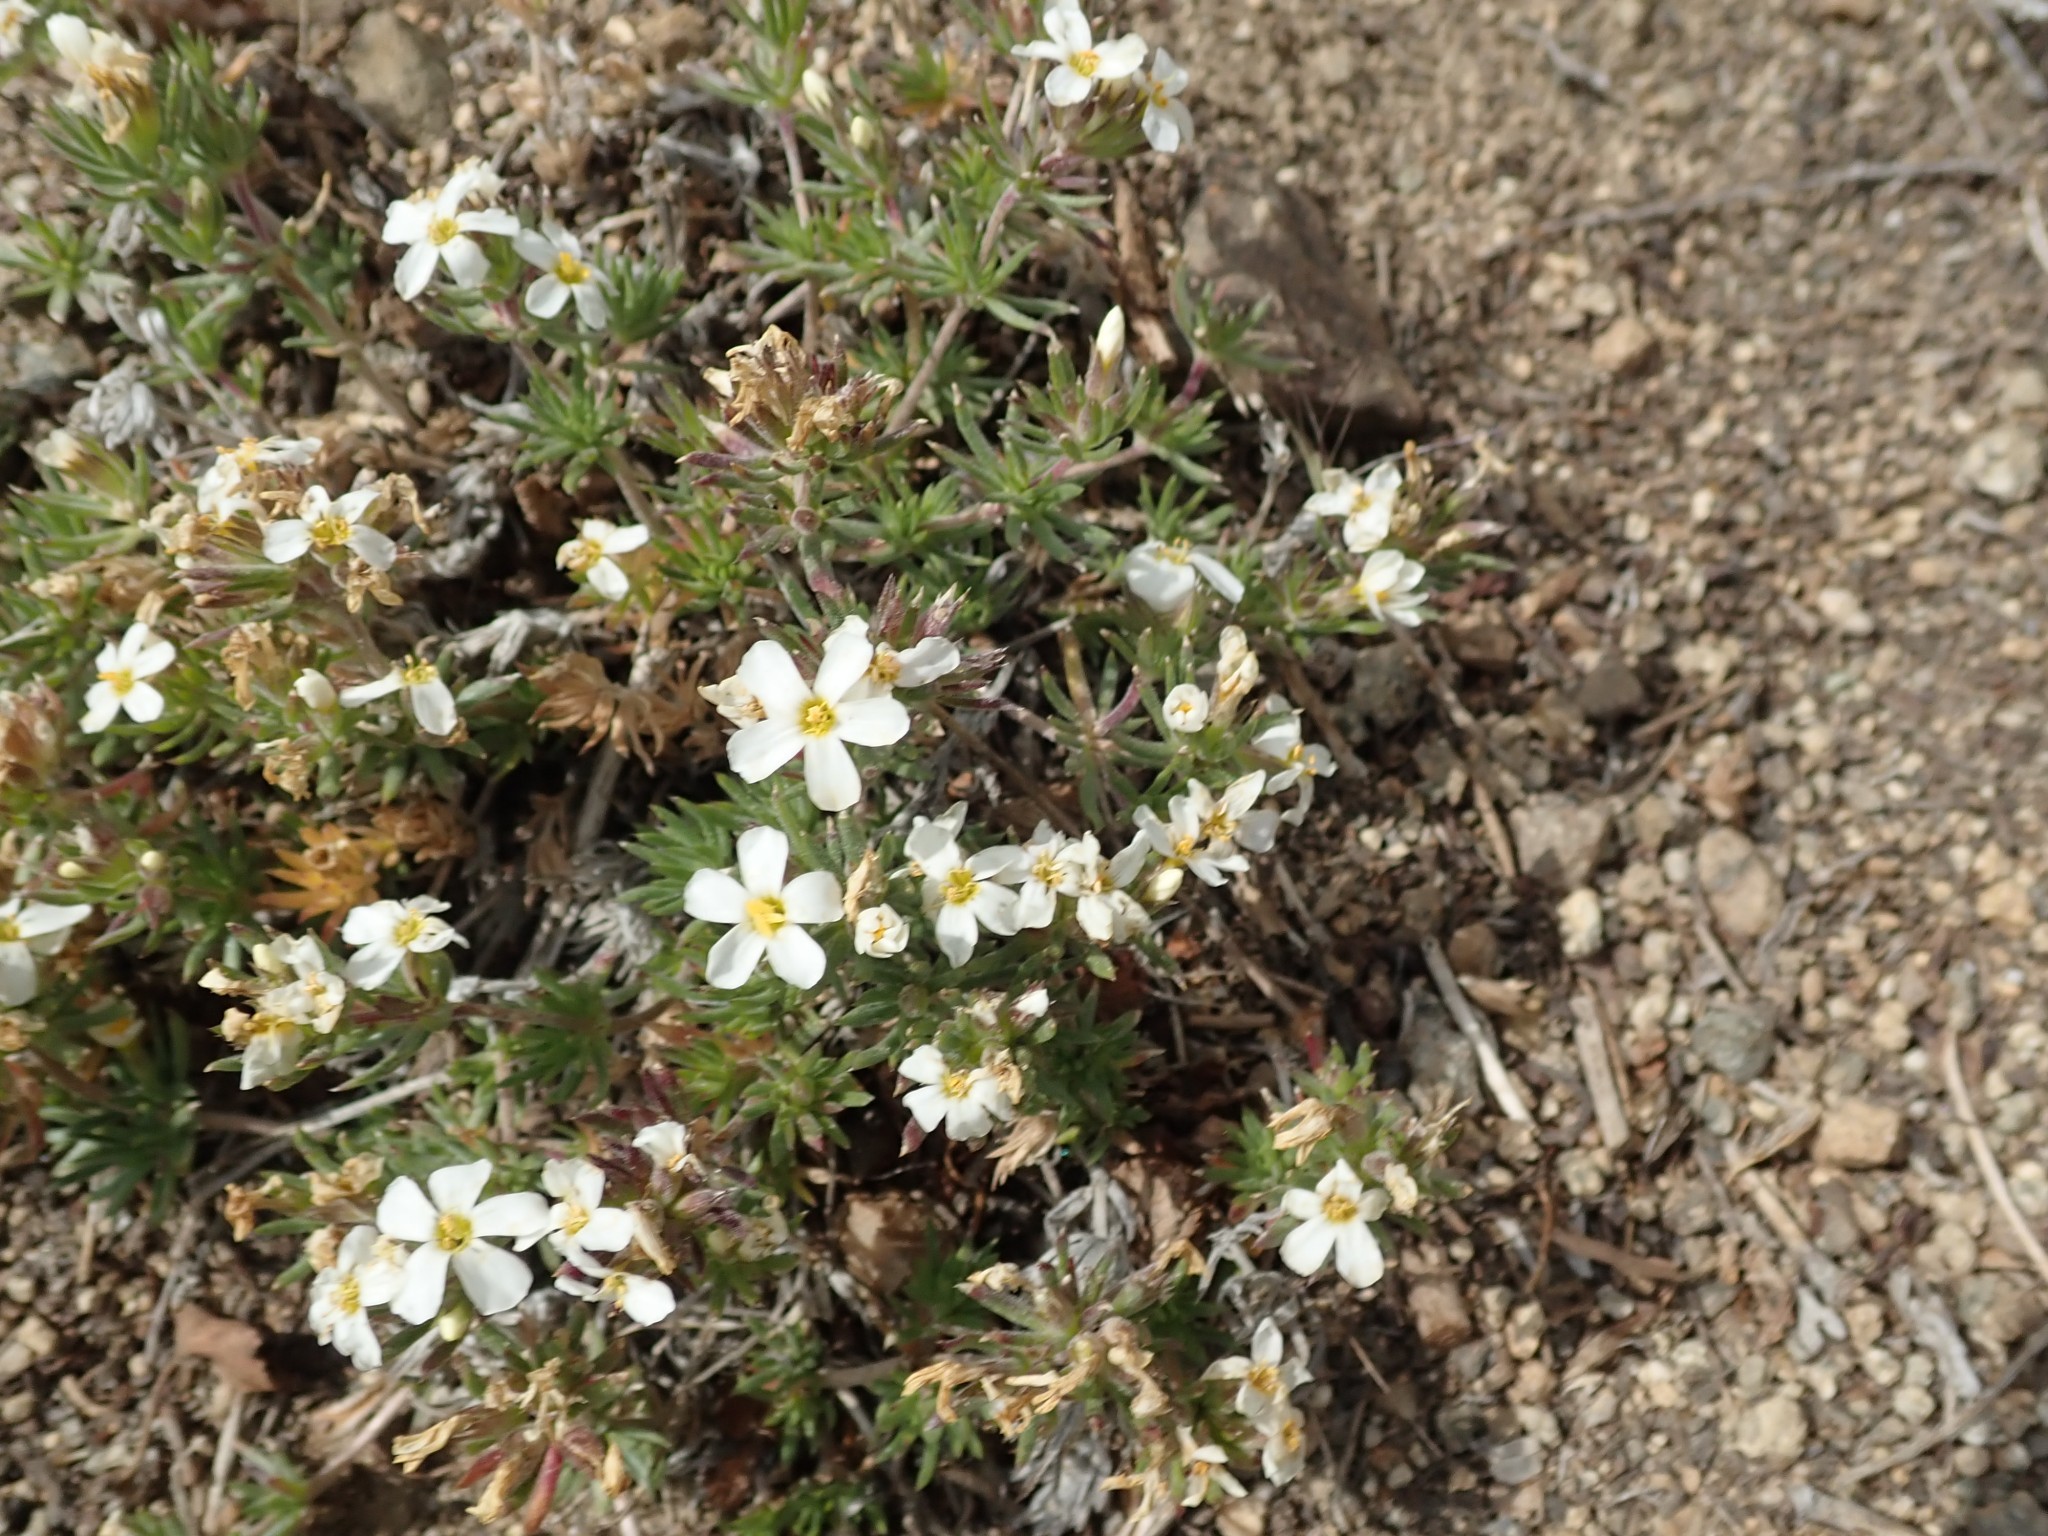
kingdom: Plantae
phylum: Tracheophyta
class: Magnoliopsida
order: Ericales
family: Polemoniaceae
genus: Leptosiphon
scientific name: Leptosiphon nuttallii
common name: Nuttall's linanthus
